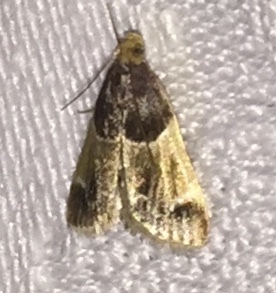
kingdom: Animalia
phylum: Arthropoda
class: Insecta
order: Lepidoptera
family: Pyralidae
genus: Pyralis
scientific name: Pyralis farinalis
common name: Meal moth
